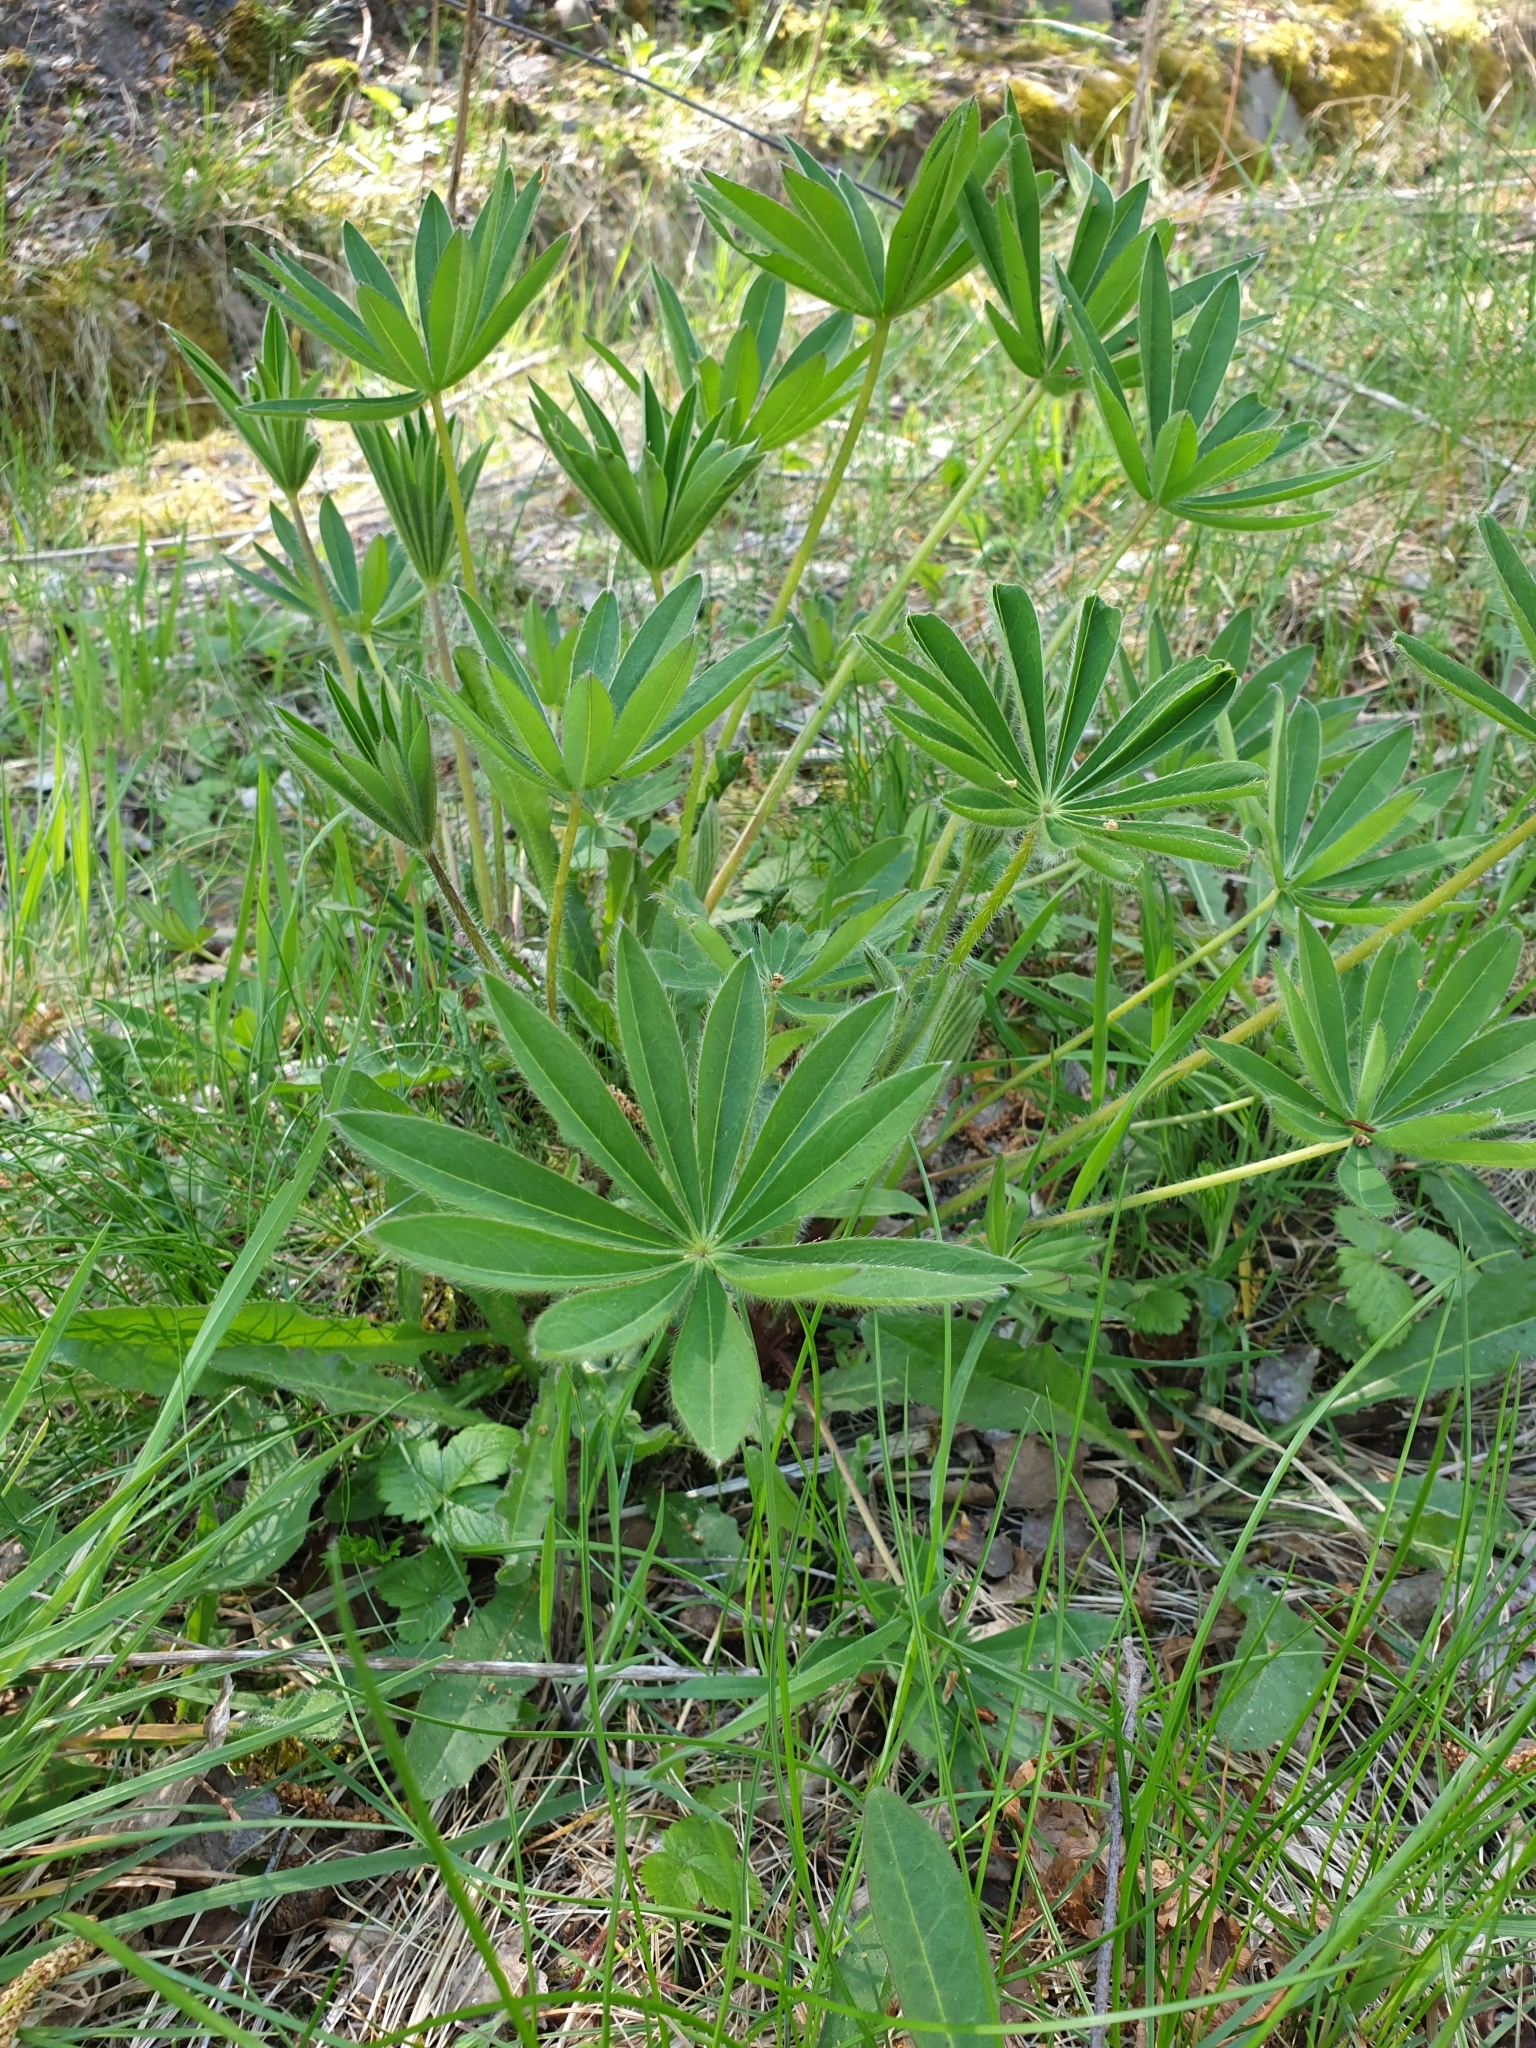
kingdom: Plantae
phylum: Tracheophyta
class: Magnoliopsida
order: Fabales
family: Fabaceae
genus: Lupinus
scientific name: Lupinus polyphyllus
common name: Garden lupin
